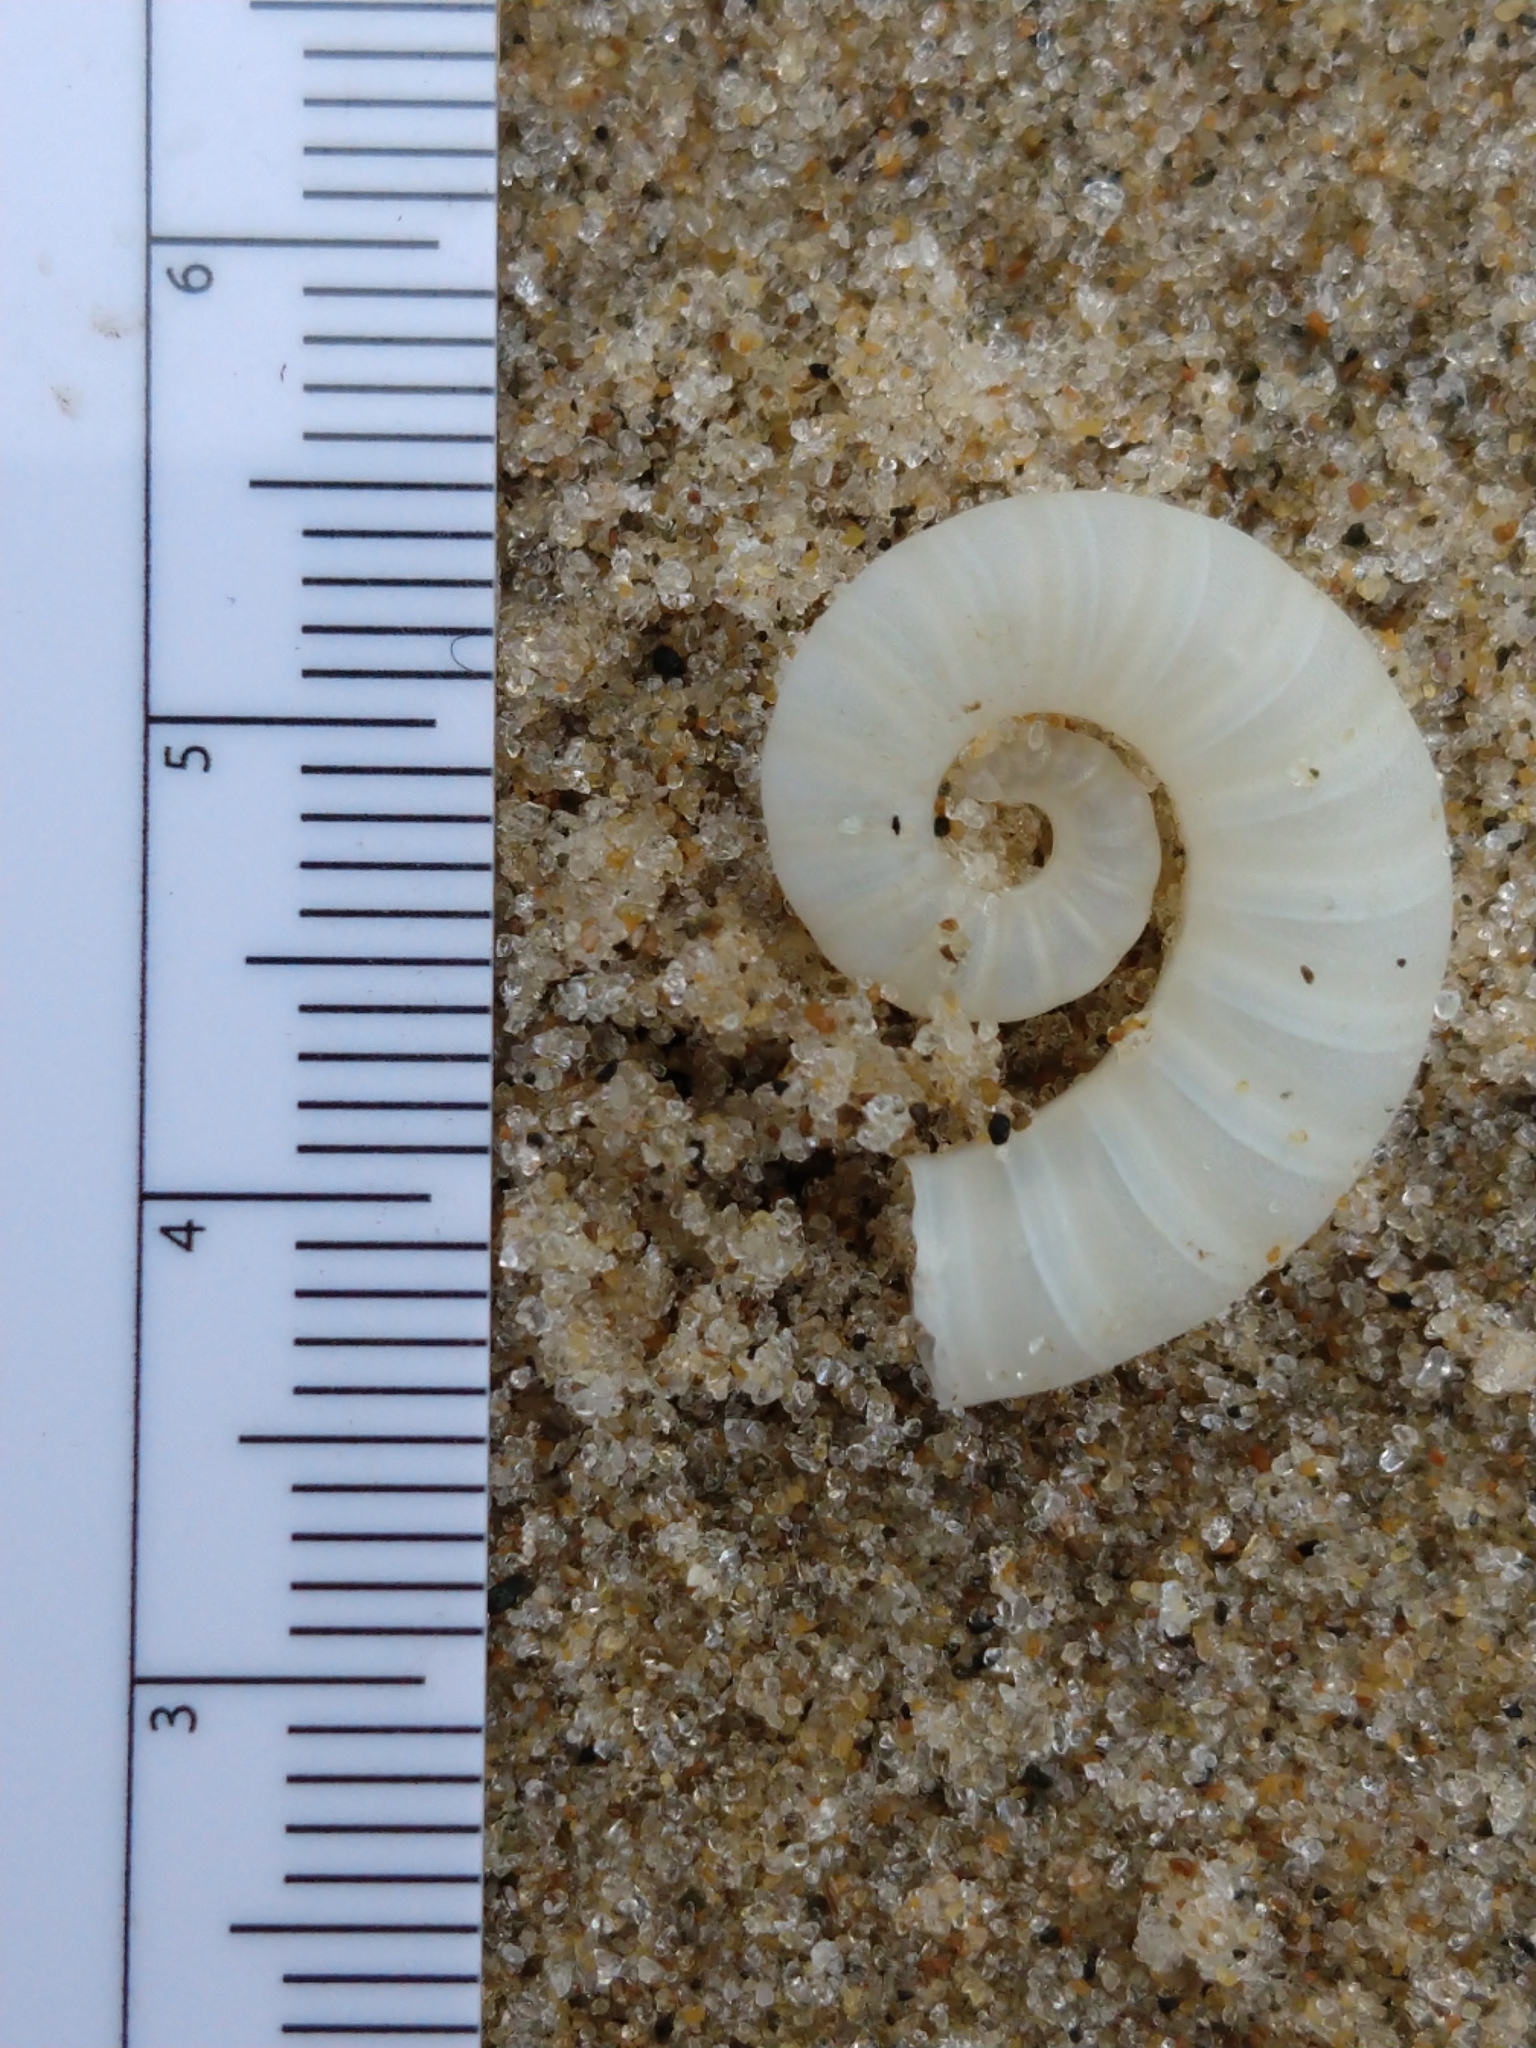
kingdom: Animalia
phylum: Mollusca
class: Cephalopoda
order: Spirulida
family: Spirulidae
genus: Spirula
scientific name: Spirula spirula
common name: Ram's horn squid
